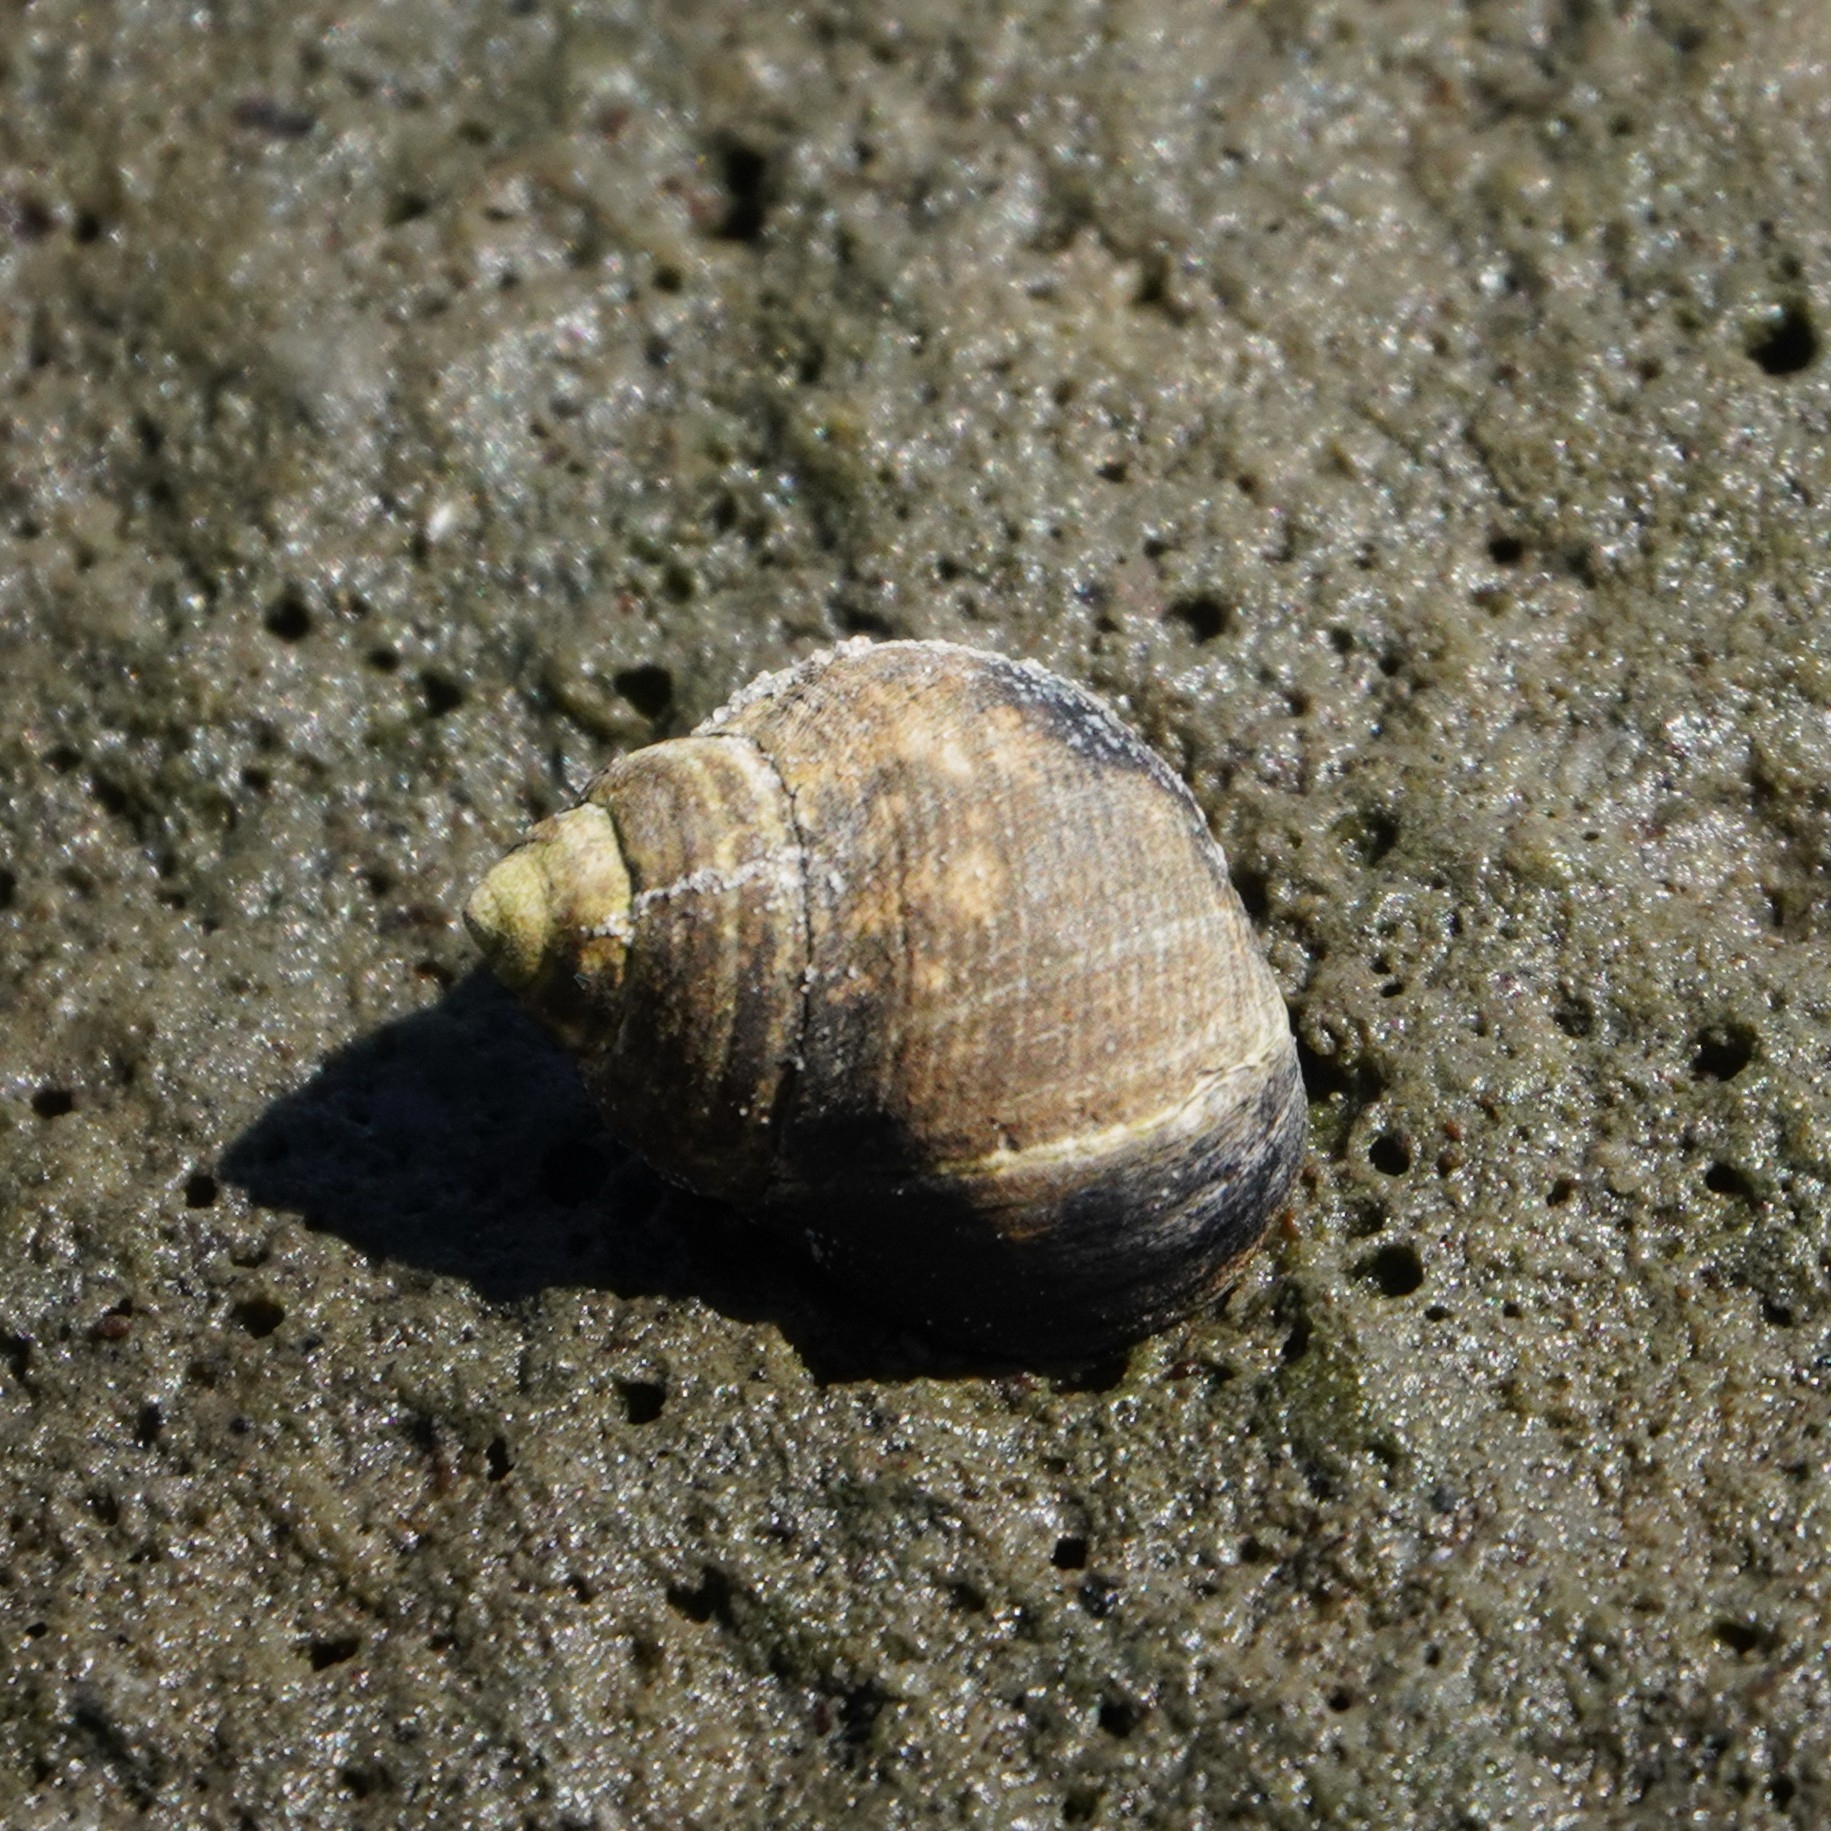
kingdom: Animalia
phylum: Mollusca
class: Gastropoda
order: Littorinimorpha
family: Littorinidae
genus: Littorina
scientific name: Littorina littorea
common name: Common periwinkle
